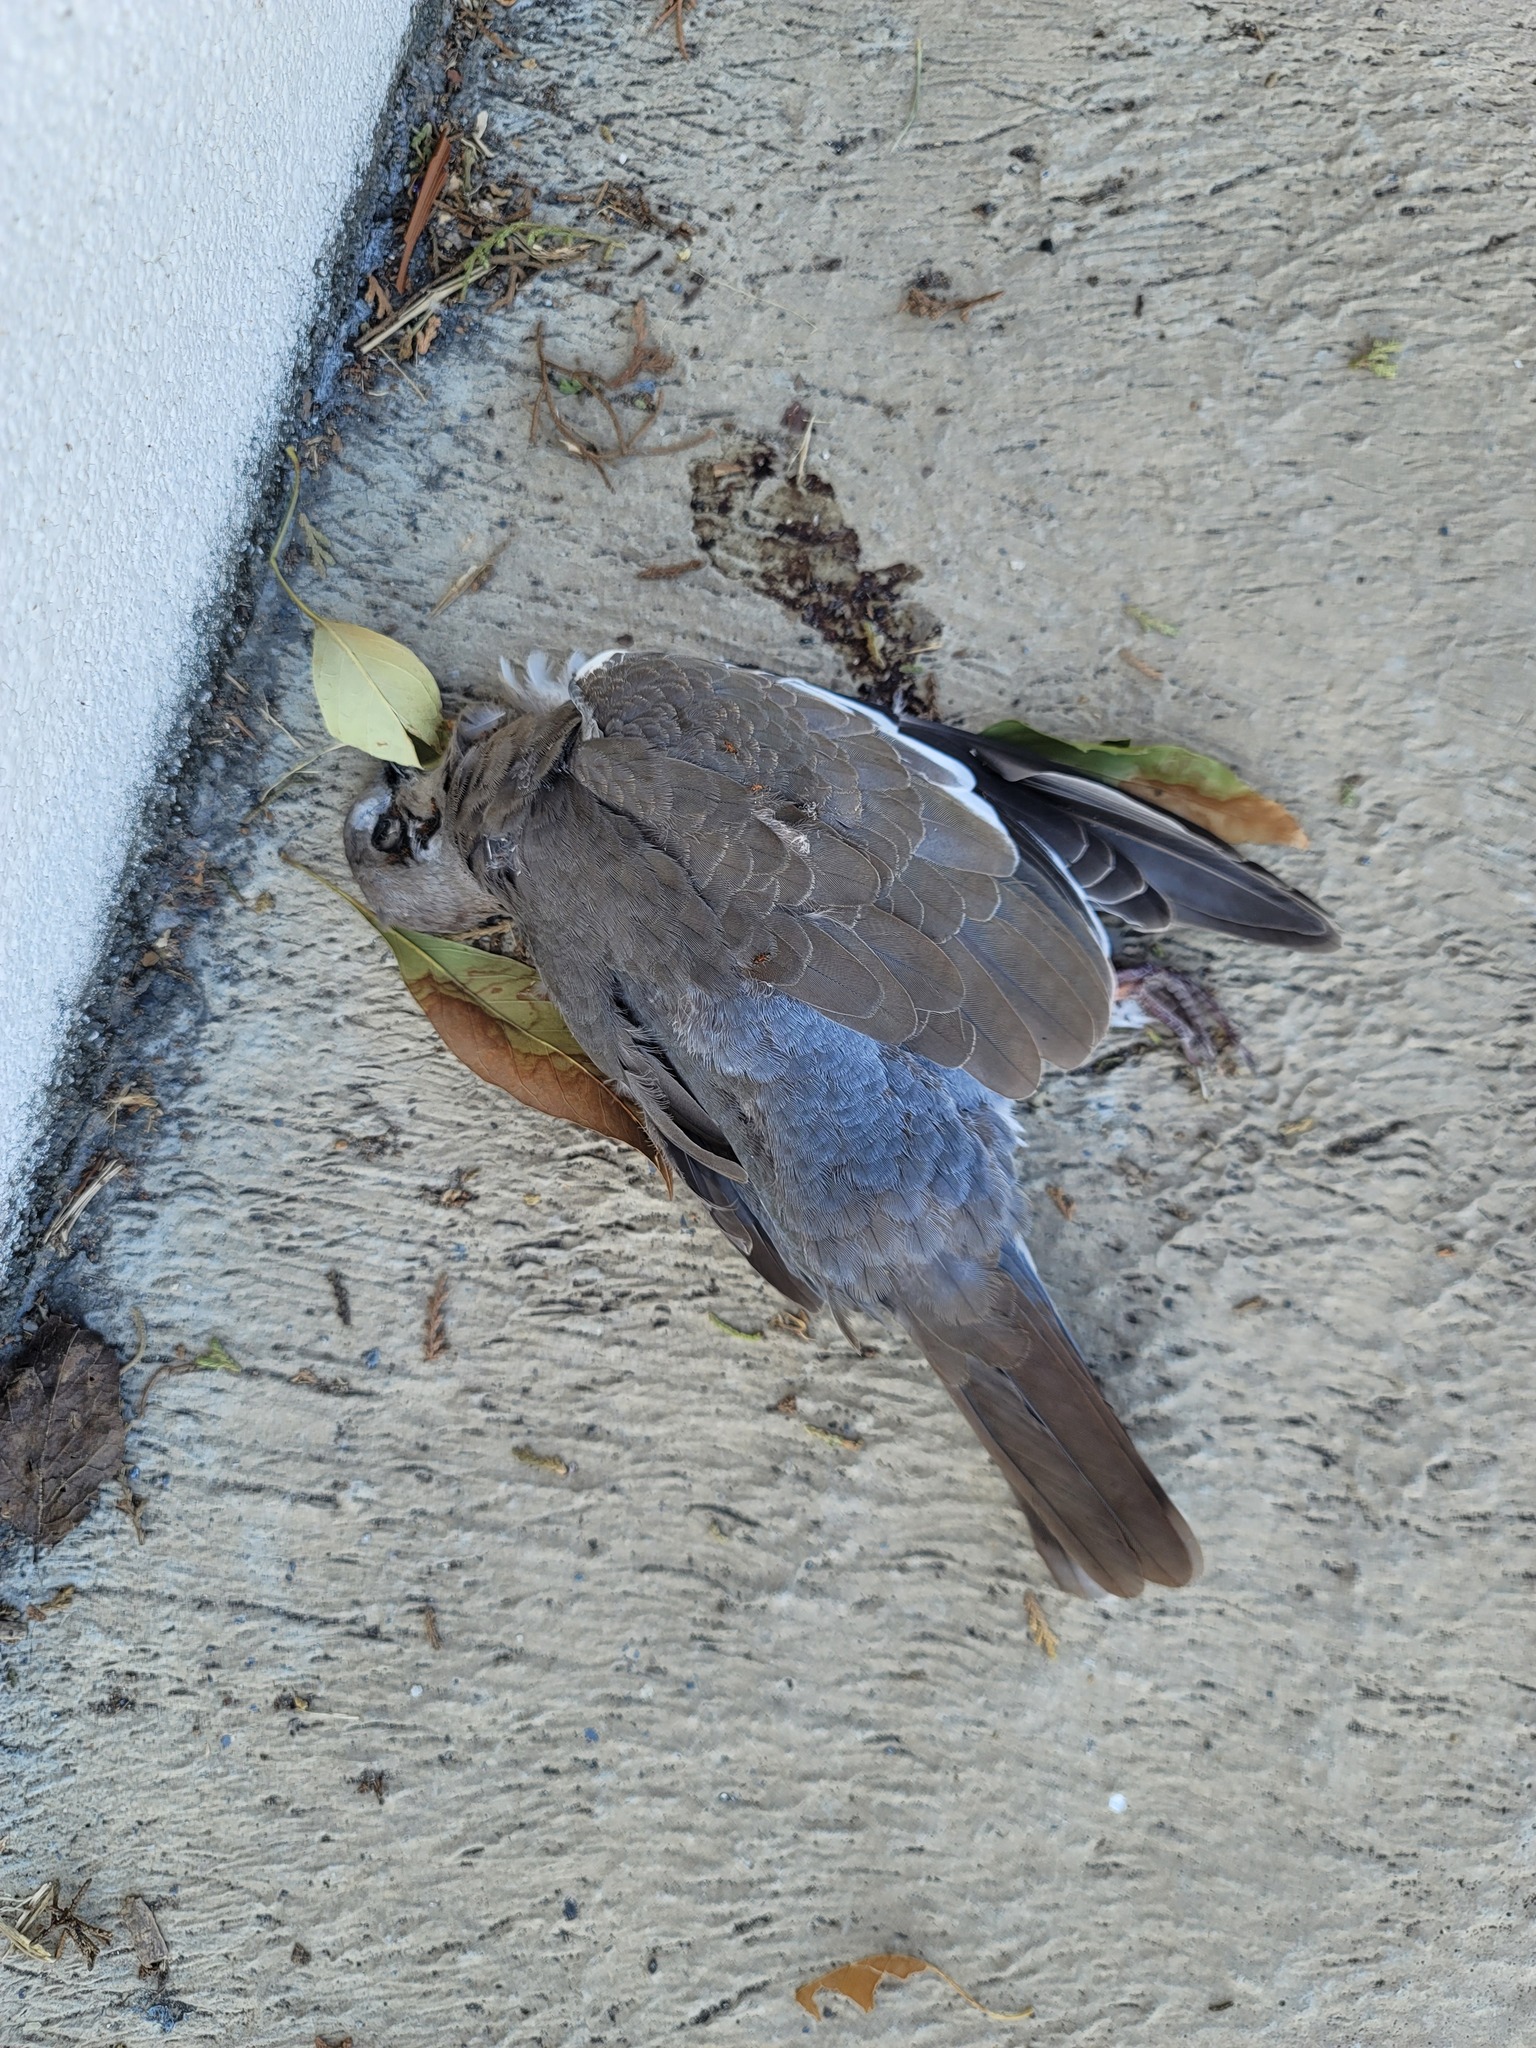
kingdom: Animalia
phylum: Chordata
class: Aves
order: Columbiformes
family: Columbidae
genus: Zenaida
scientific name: Zenaida asiatica
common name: White-winged dove
